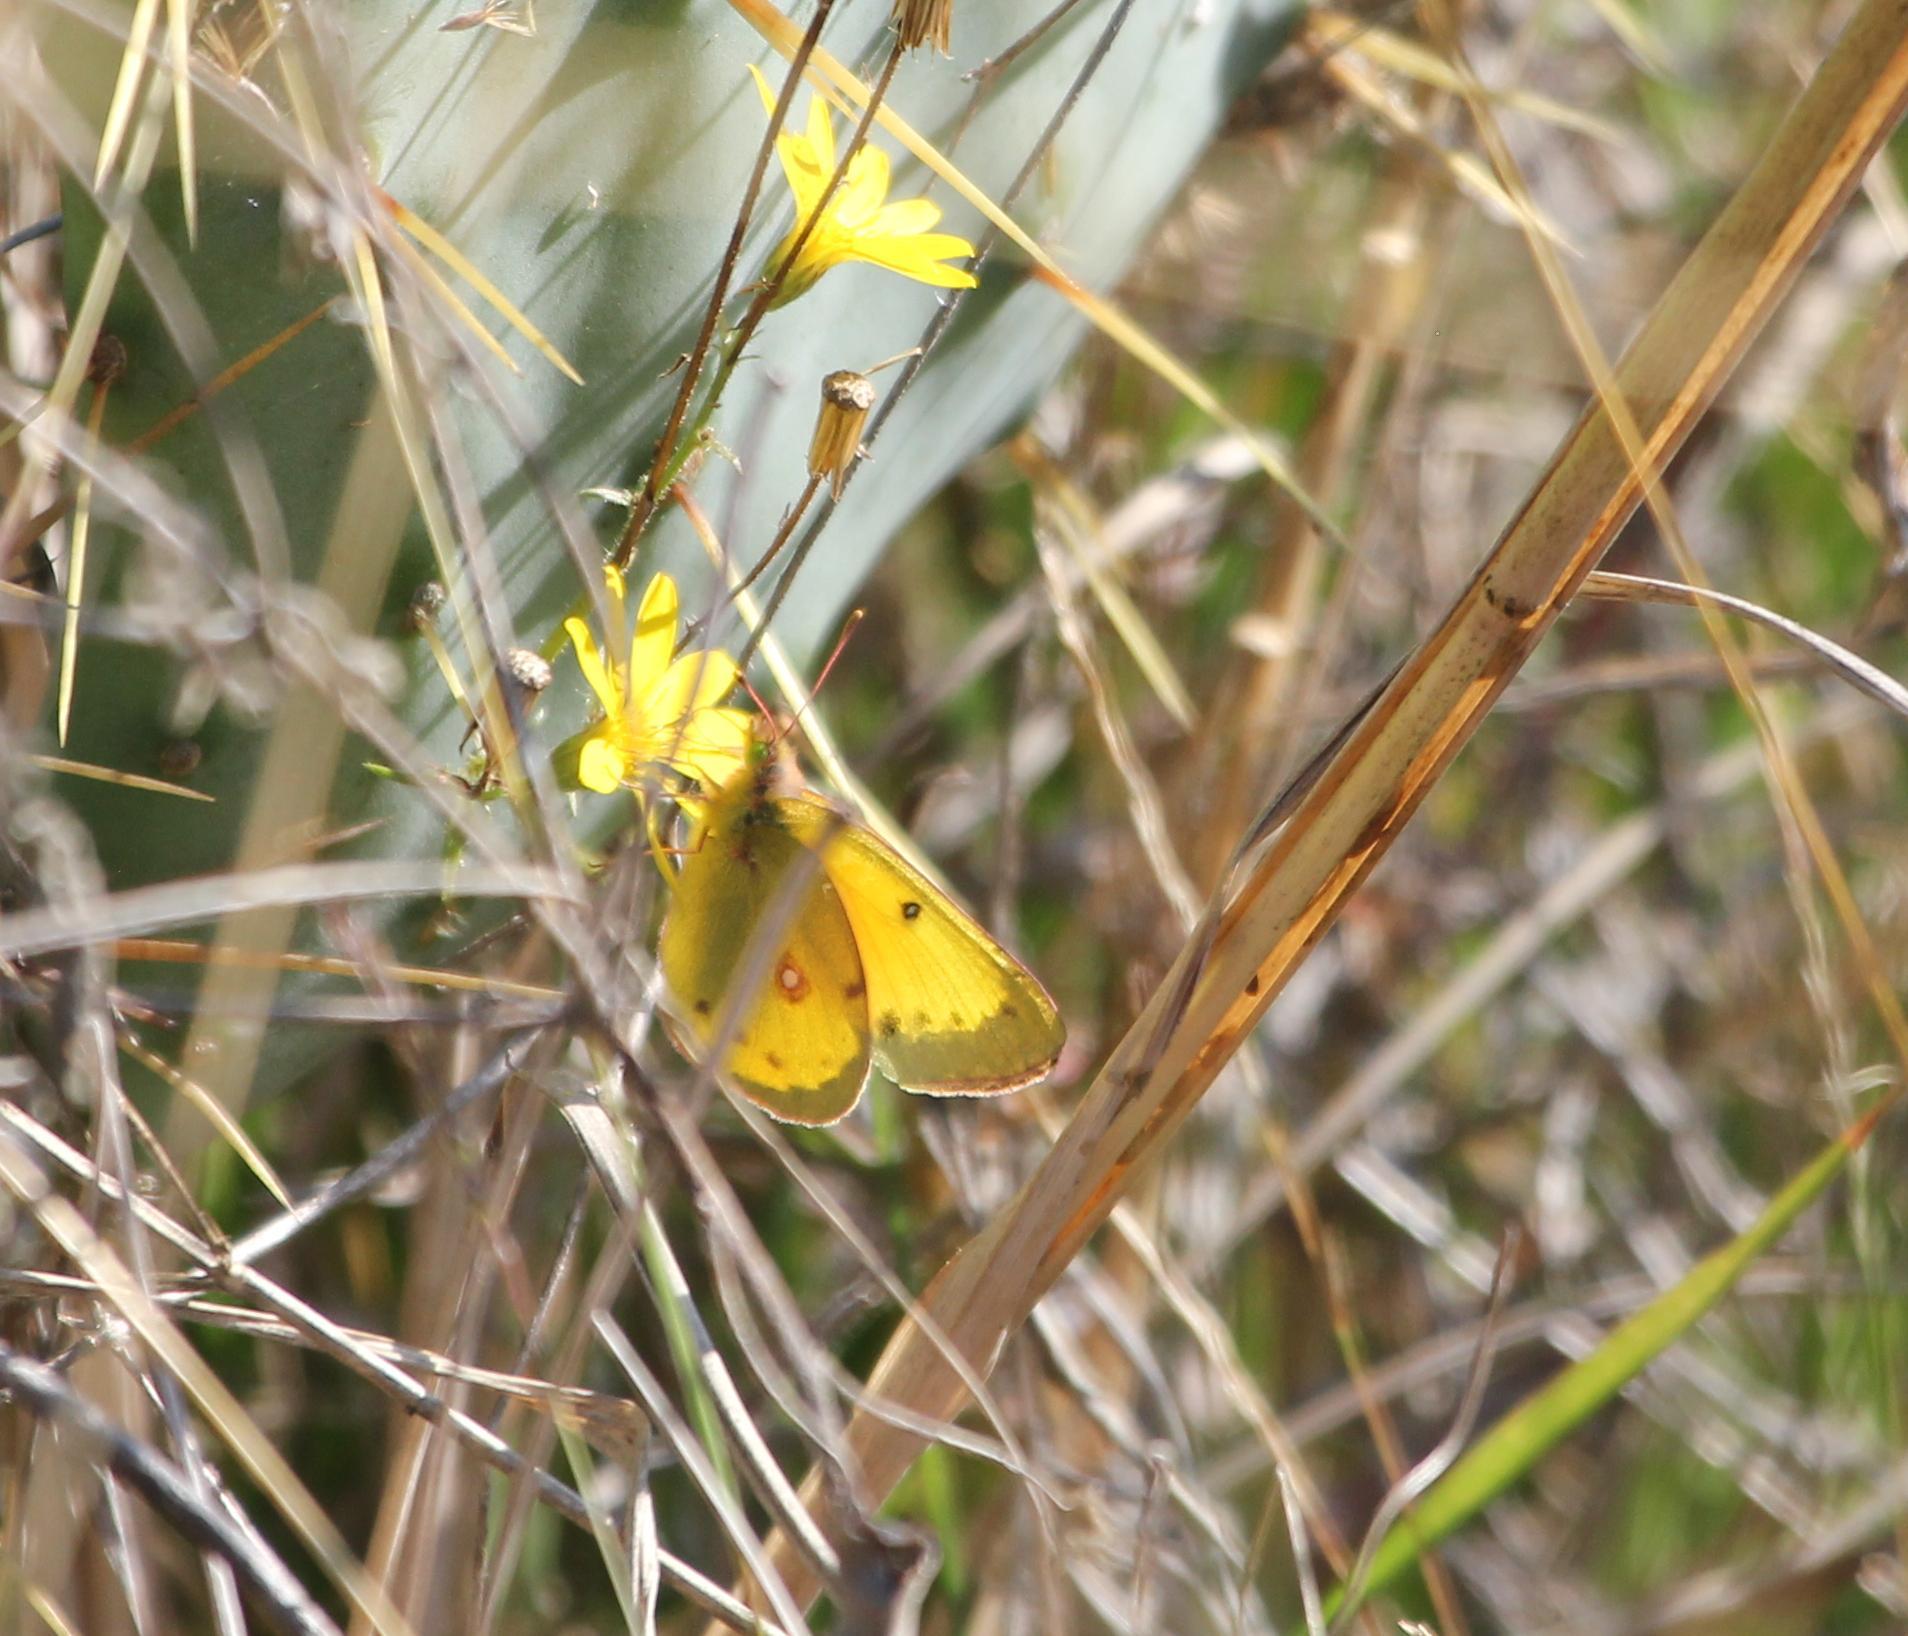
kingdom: Animalia
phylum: Arthropoda
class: Insecta
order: Lepidoptera
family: Pieridae
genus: Colias
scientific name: Colias eurytheme
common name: Alfalfa butterfly
